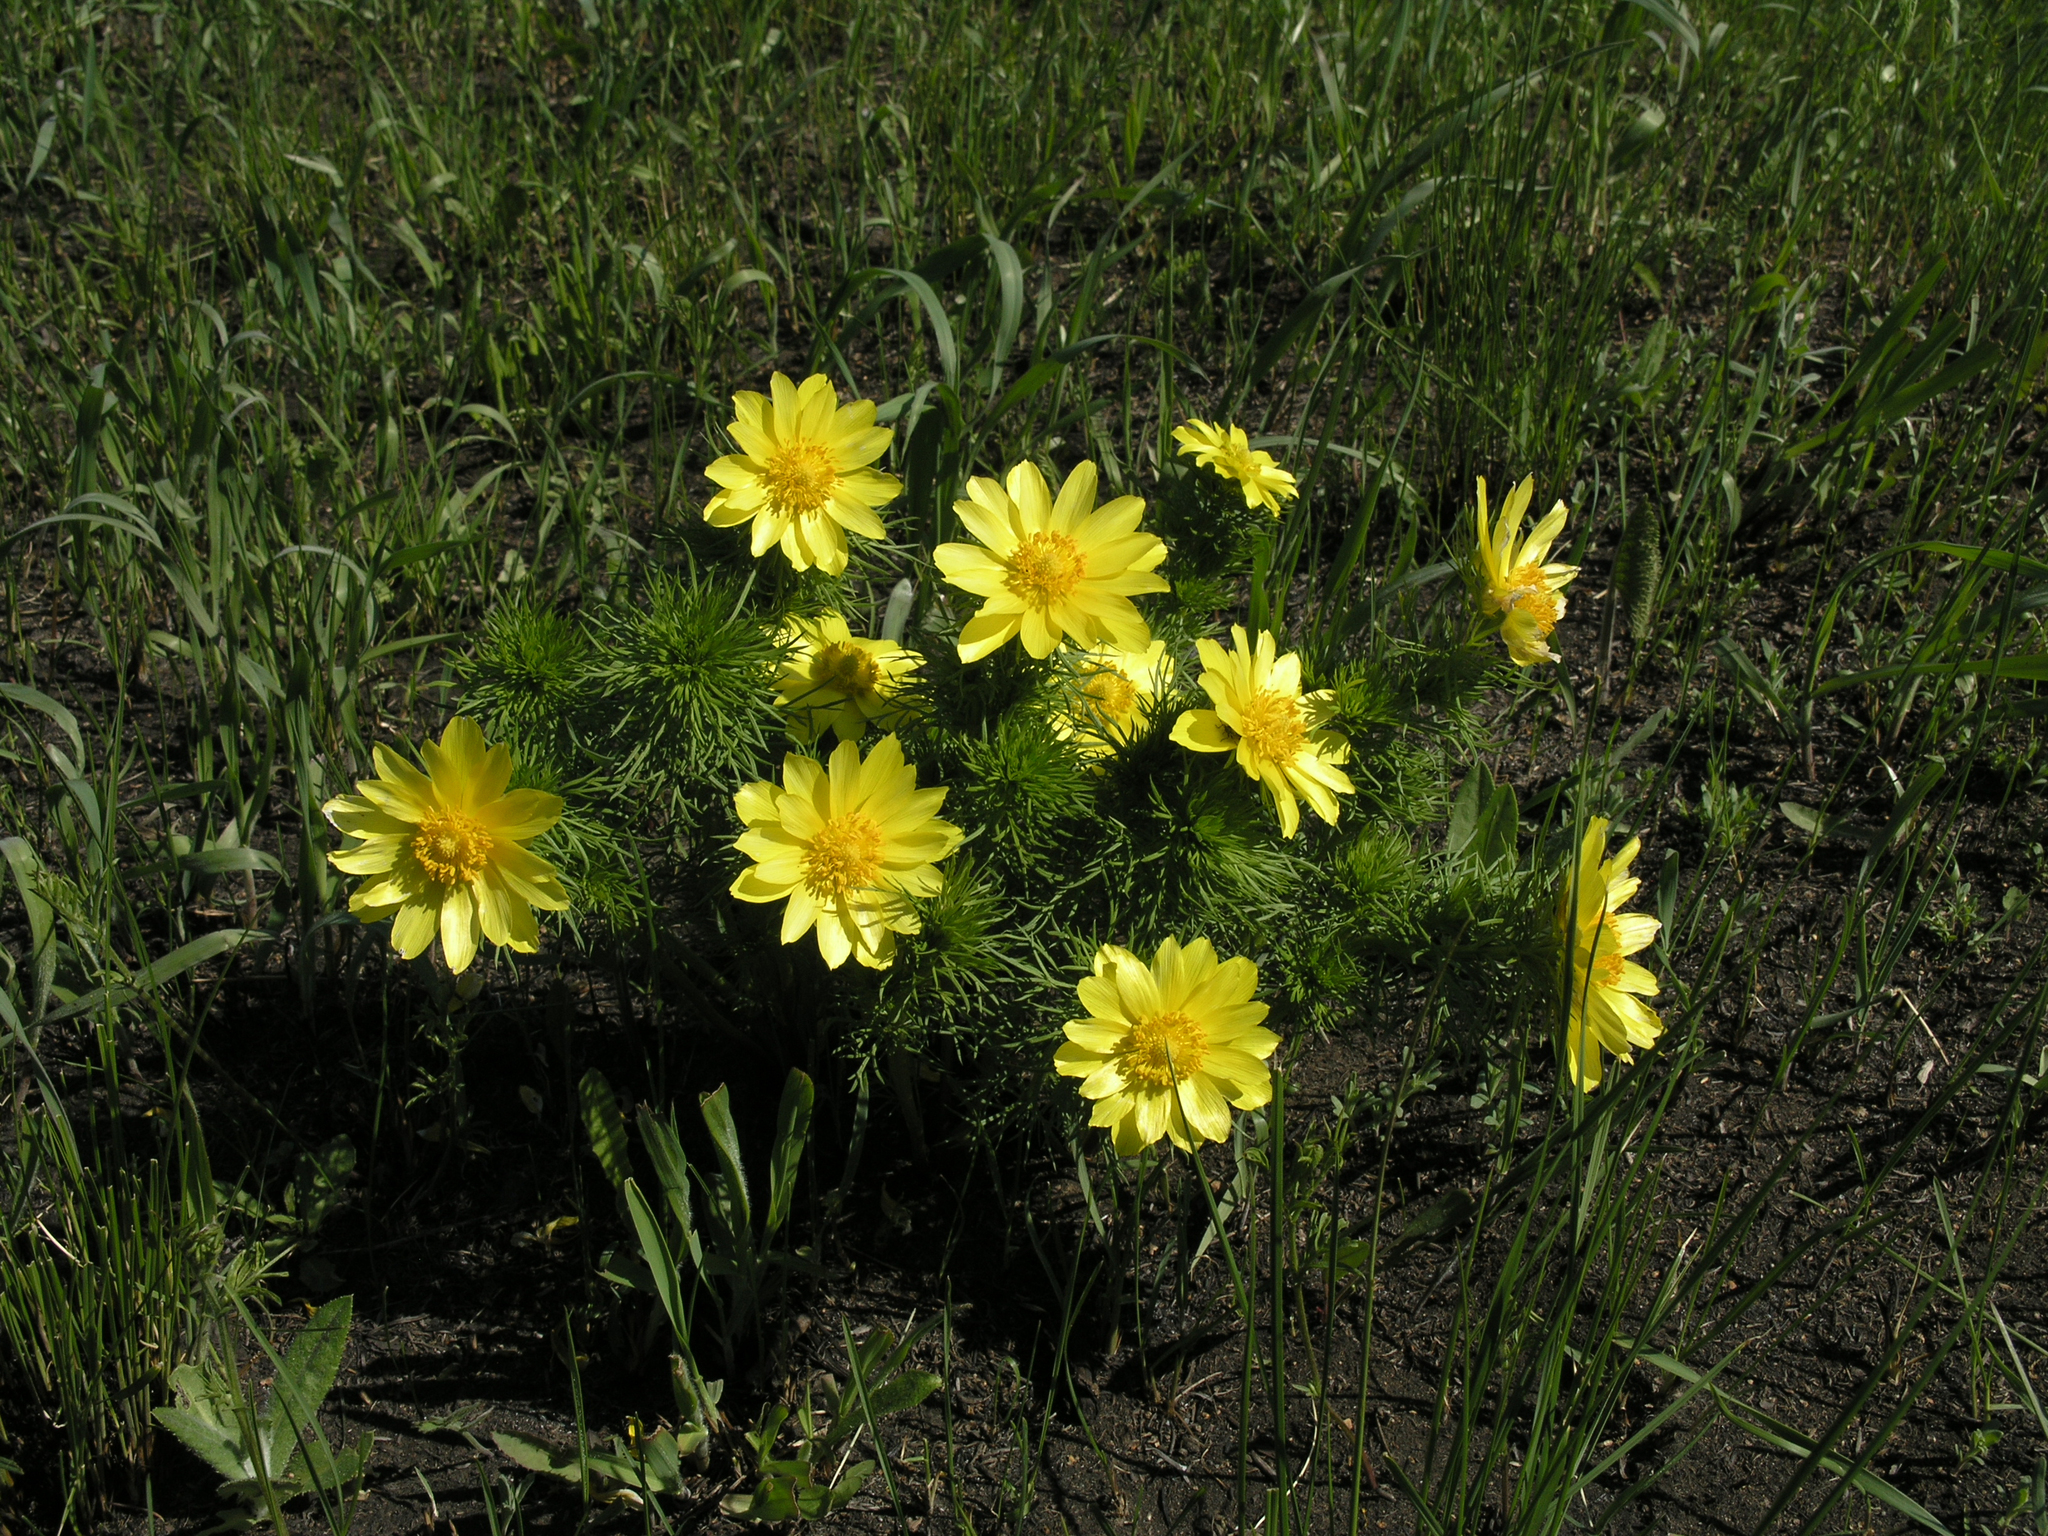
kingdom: Plantae
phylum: Tracheophyta
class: Magnoliopsida
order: Ranunculales
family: Ranunculaceae
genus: Adonis
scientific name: Adonis vernalis
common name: Yellow pheasants-eye
